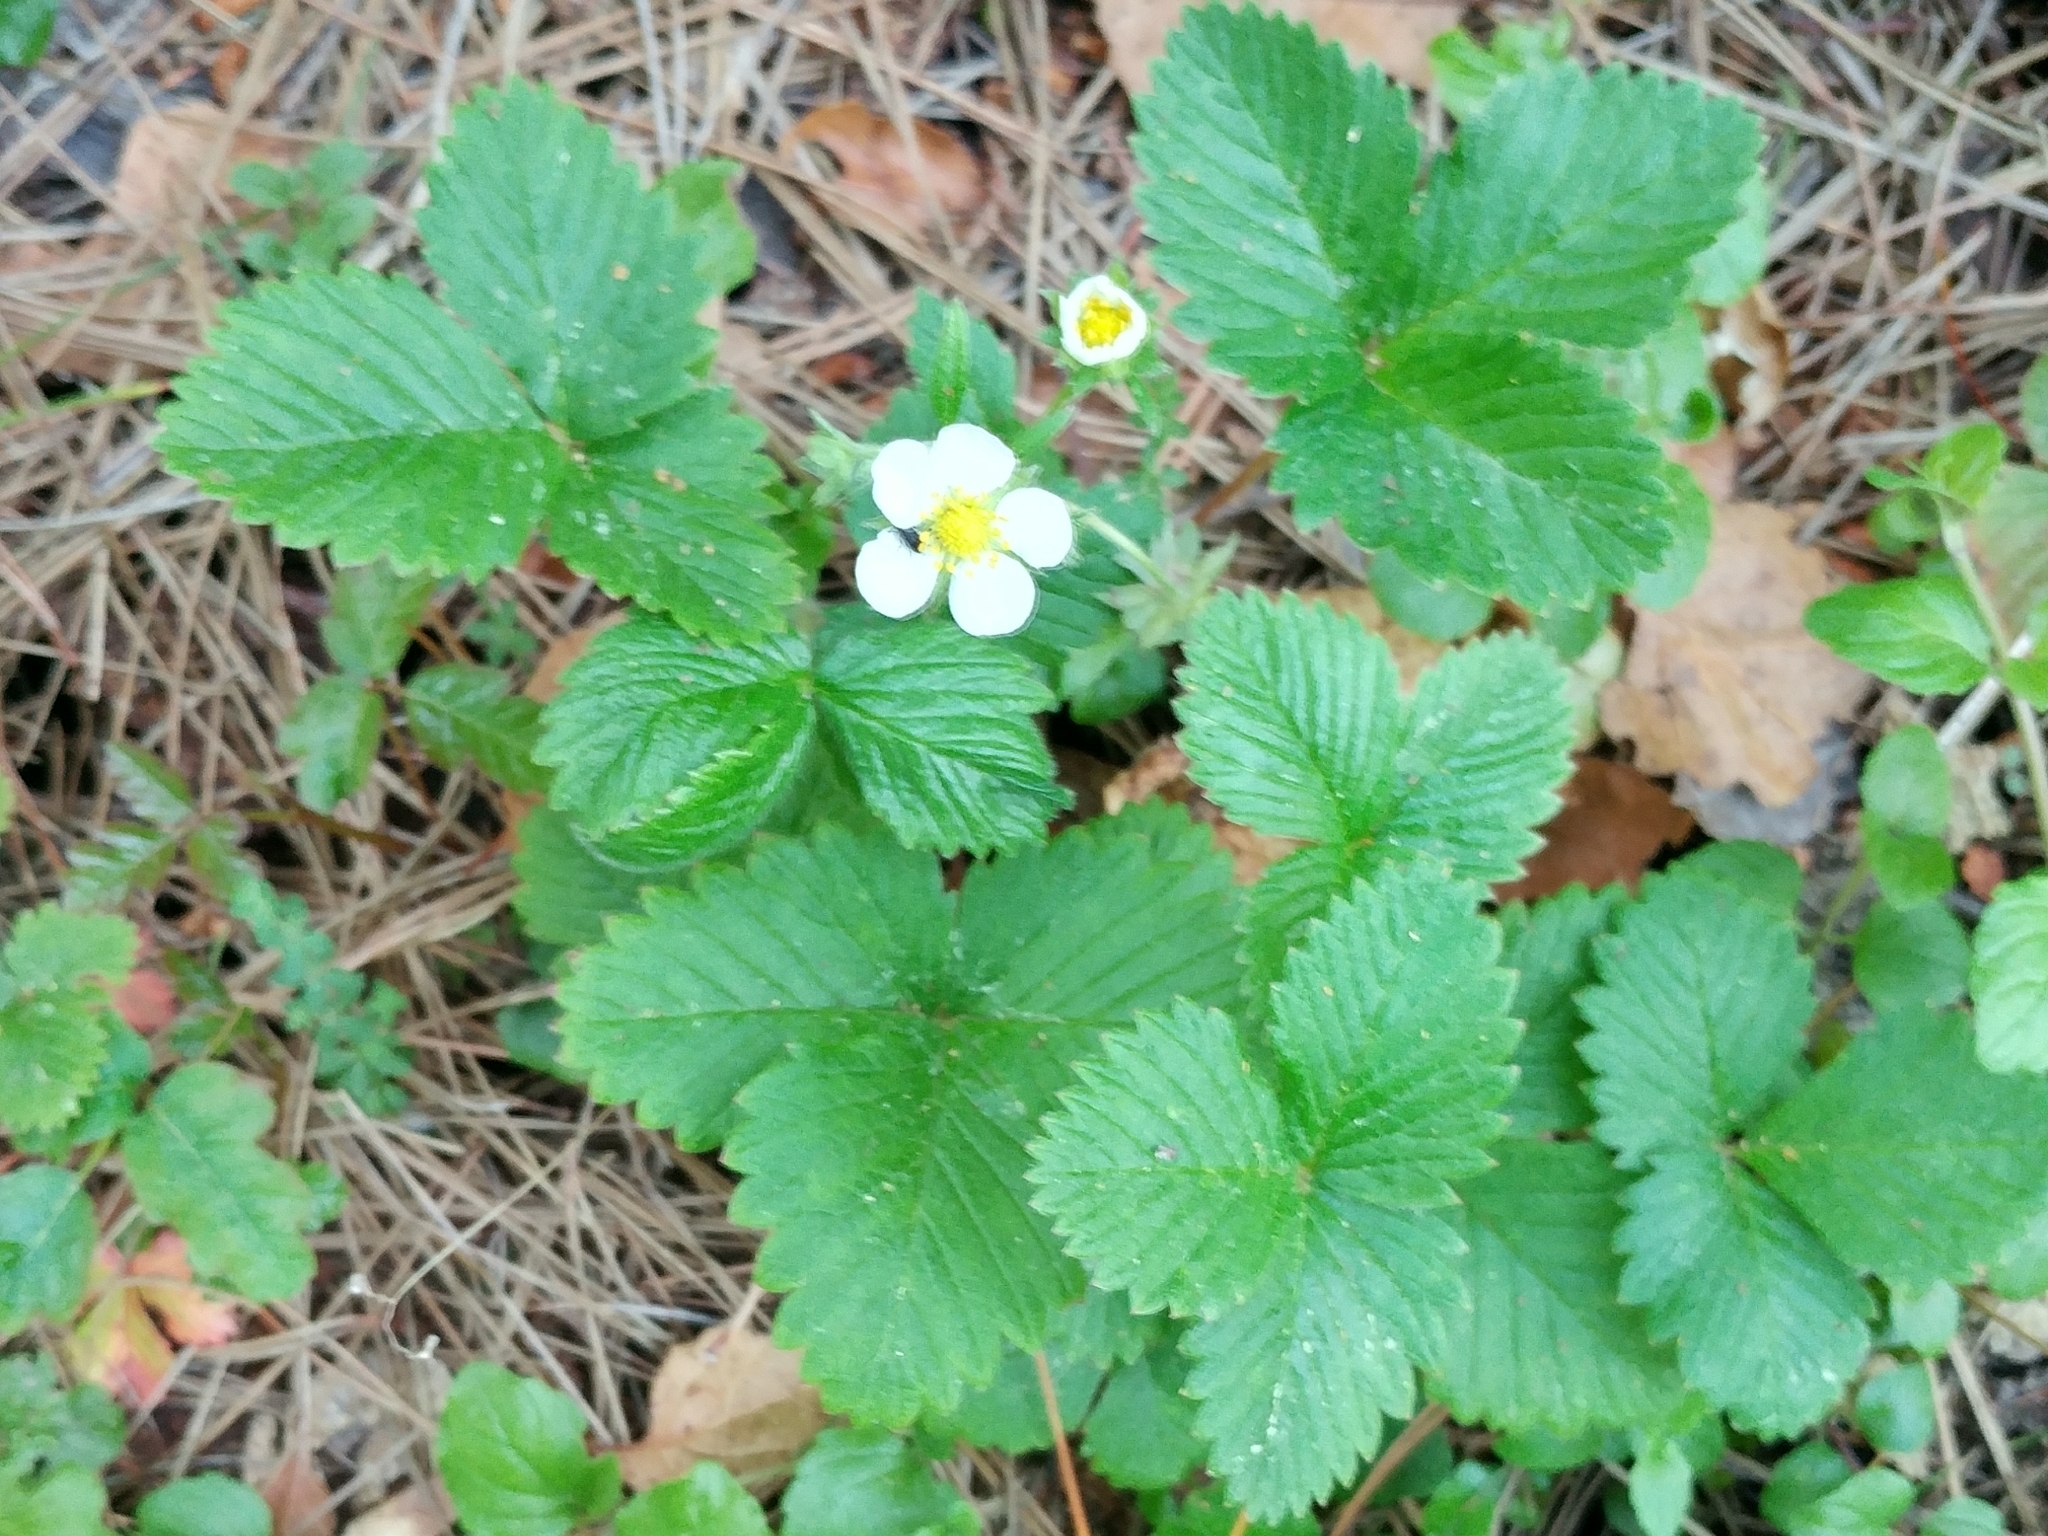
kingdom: Plantae
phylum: Tracheophyta
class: Magnoliopsida
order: Rosales
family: Rosaceae
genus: Fragaria
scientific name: Fragaria vesca
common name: Wild strawberry
